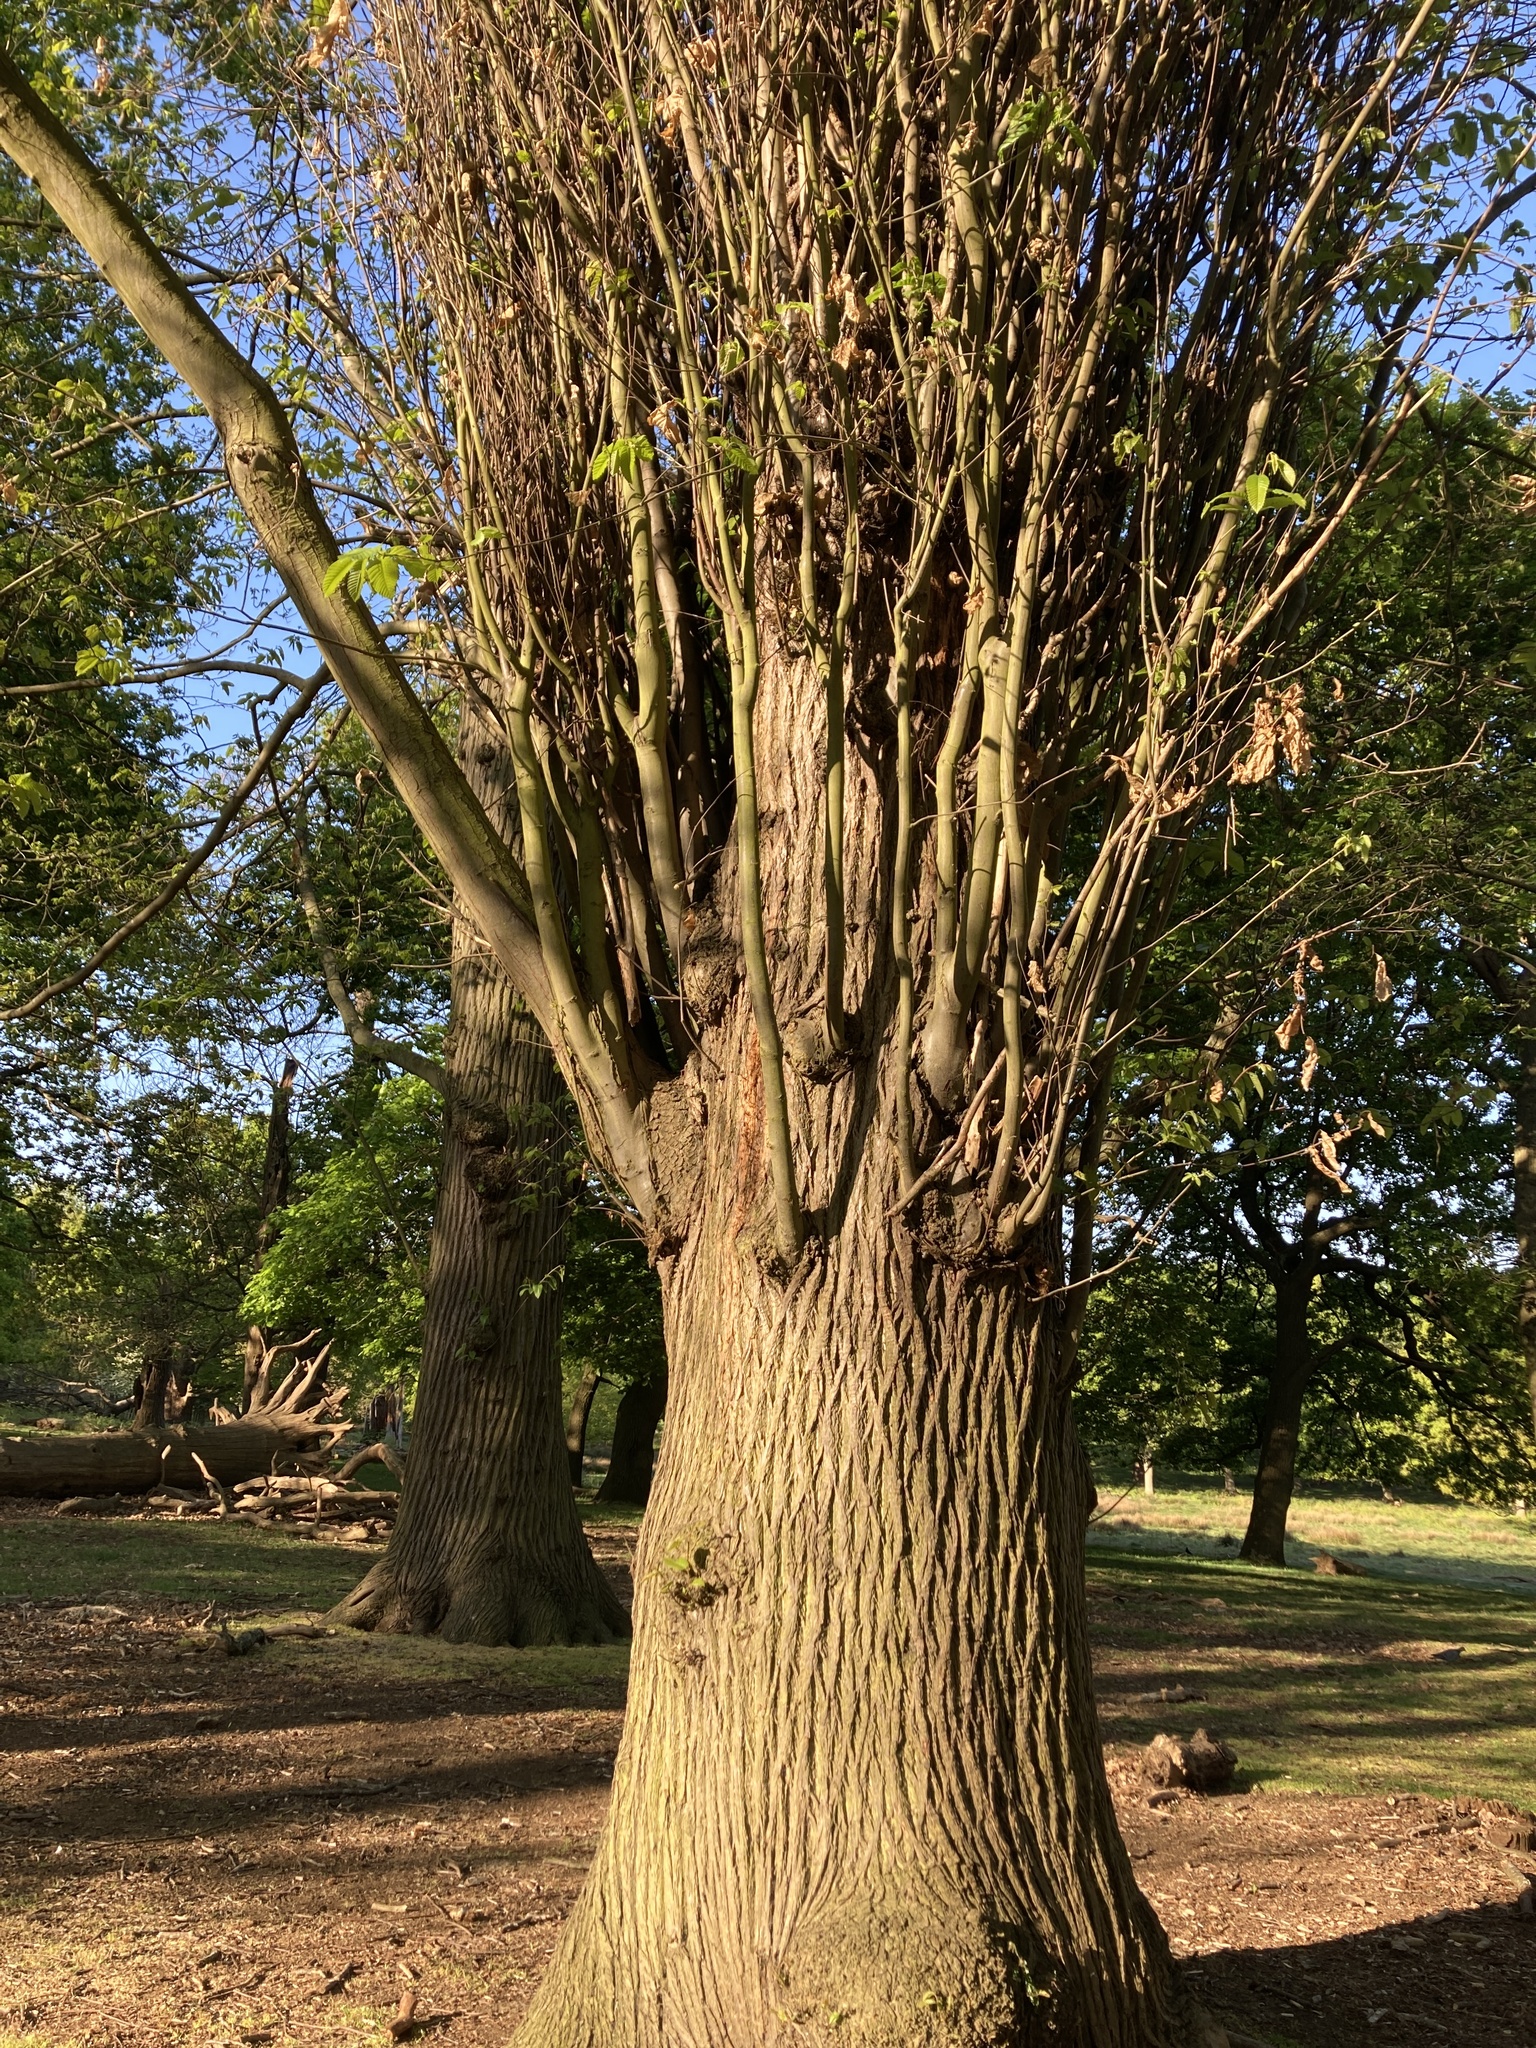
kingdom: Plantae
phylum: Tracheophyta
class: Magnoliopsida
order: Fagales
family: Fagaceae
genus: Castanea
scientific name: Castanea sativa
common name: Sweet chestnut
